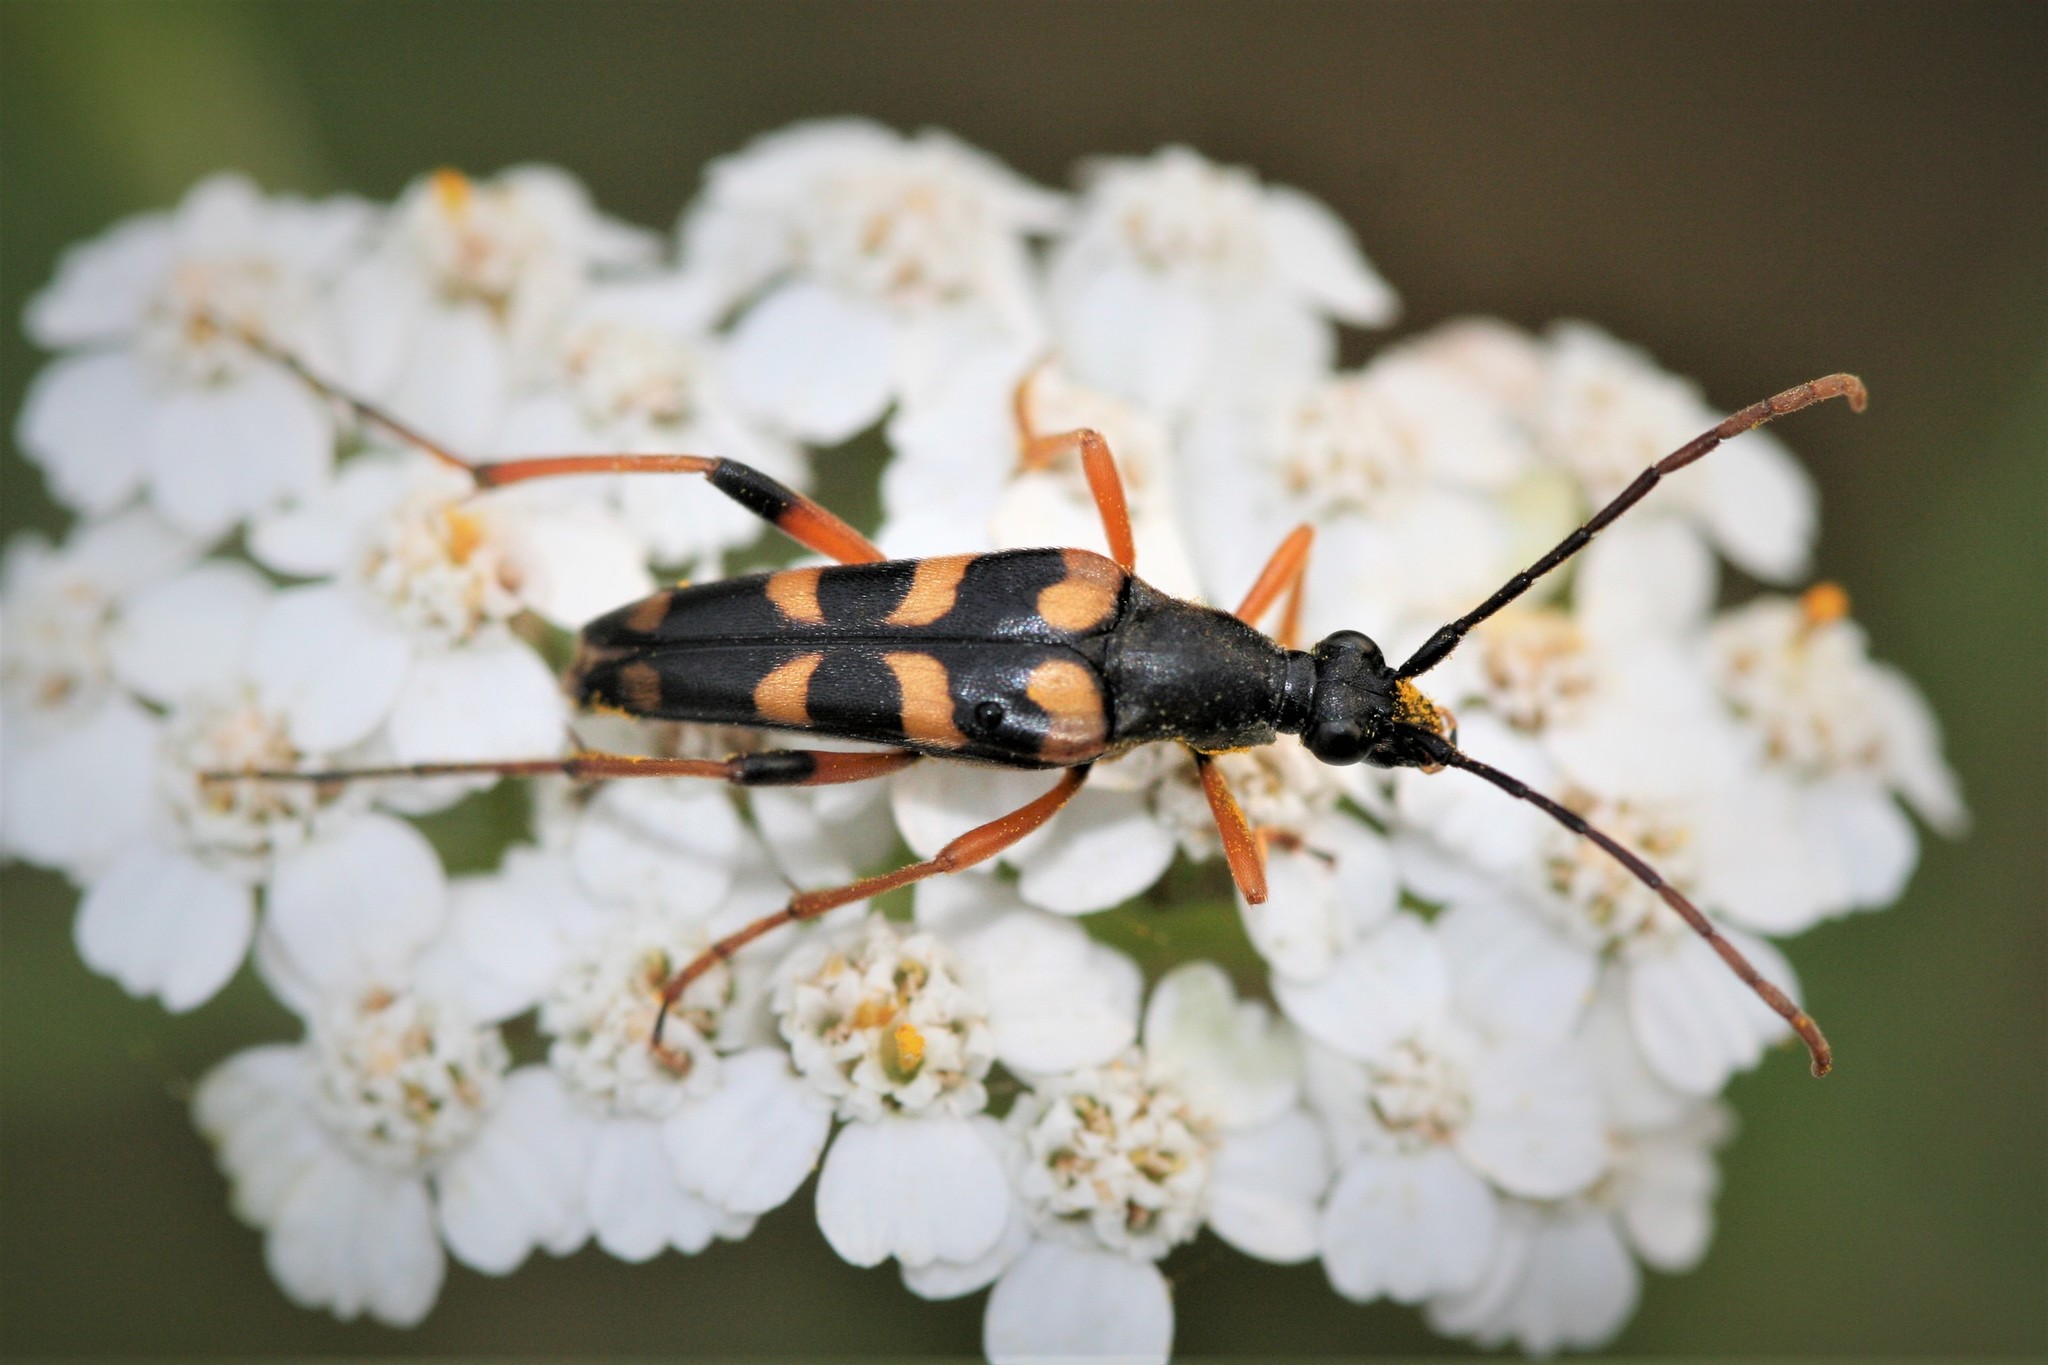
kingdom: Animalia
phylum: Arthropoda
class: Insecta
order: Coleoptera
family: Cerambycidae
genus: Strangalia
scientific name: Strangalia attenuata
